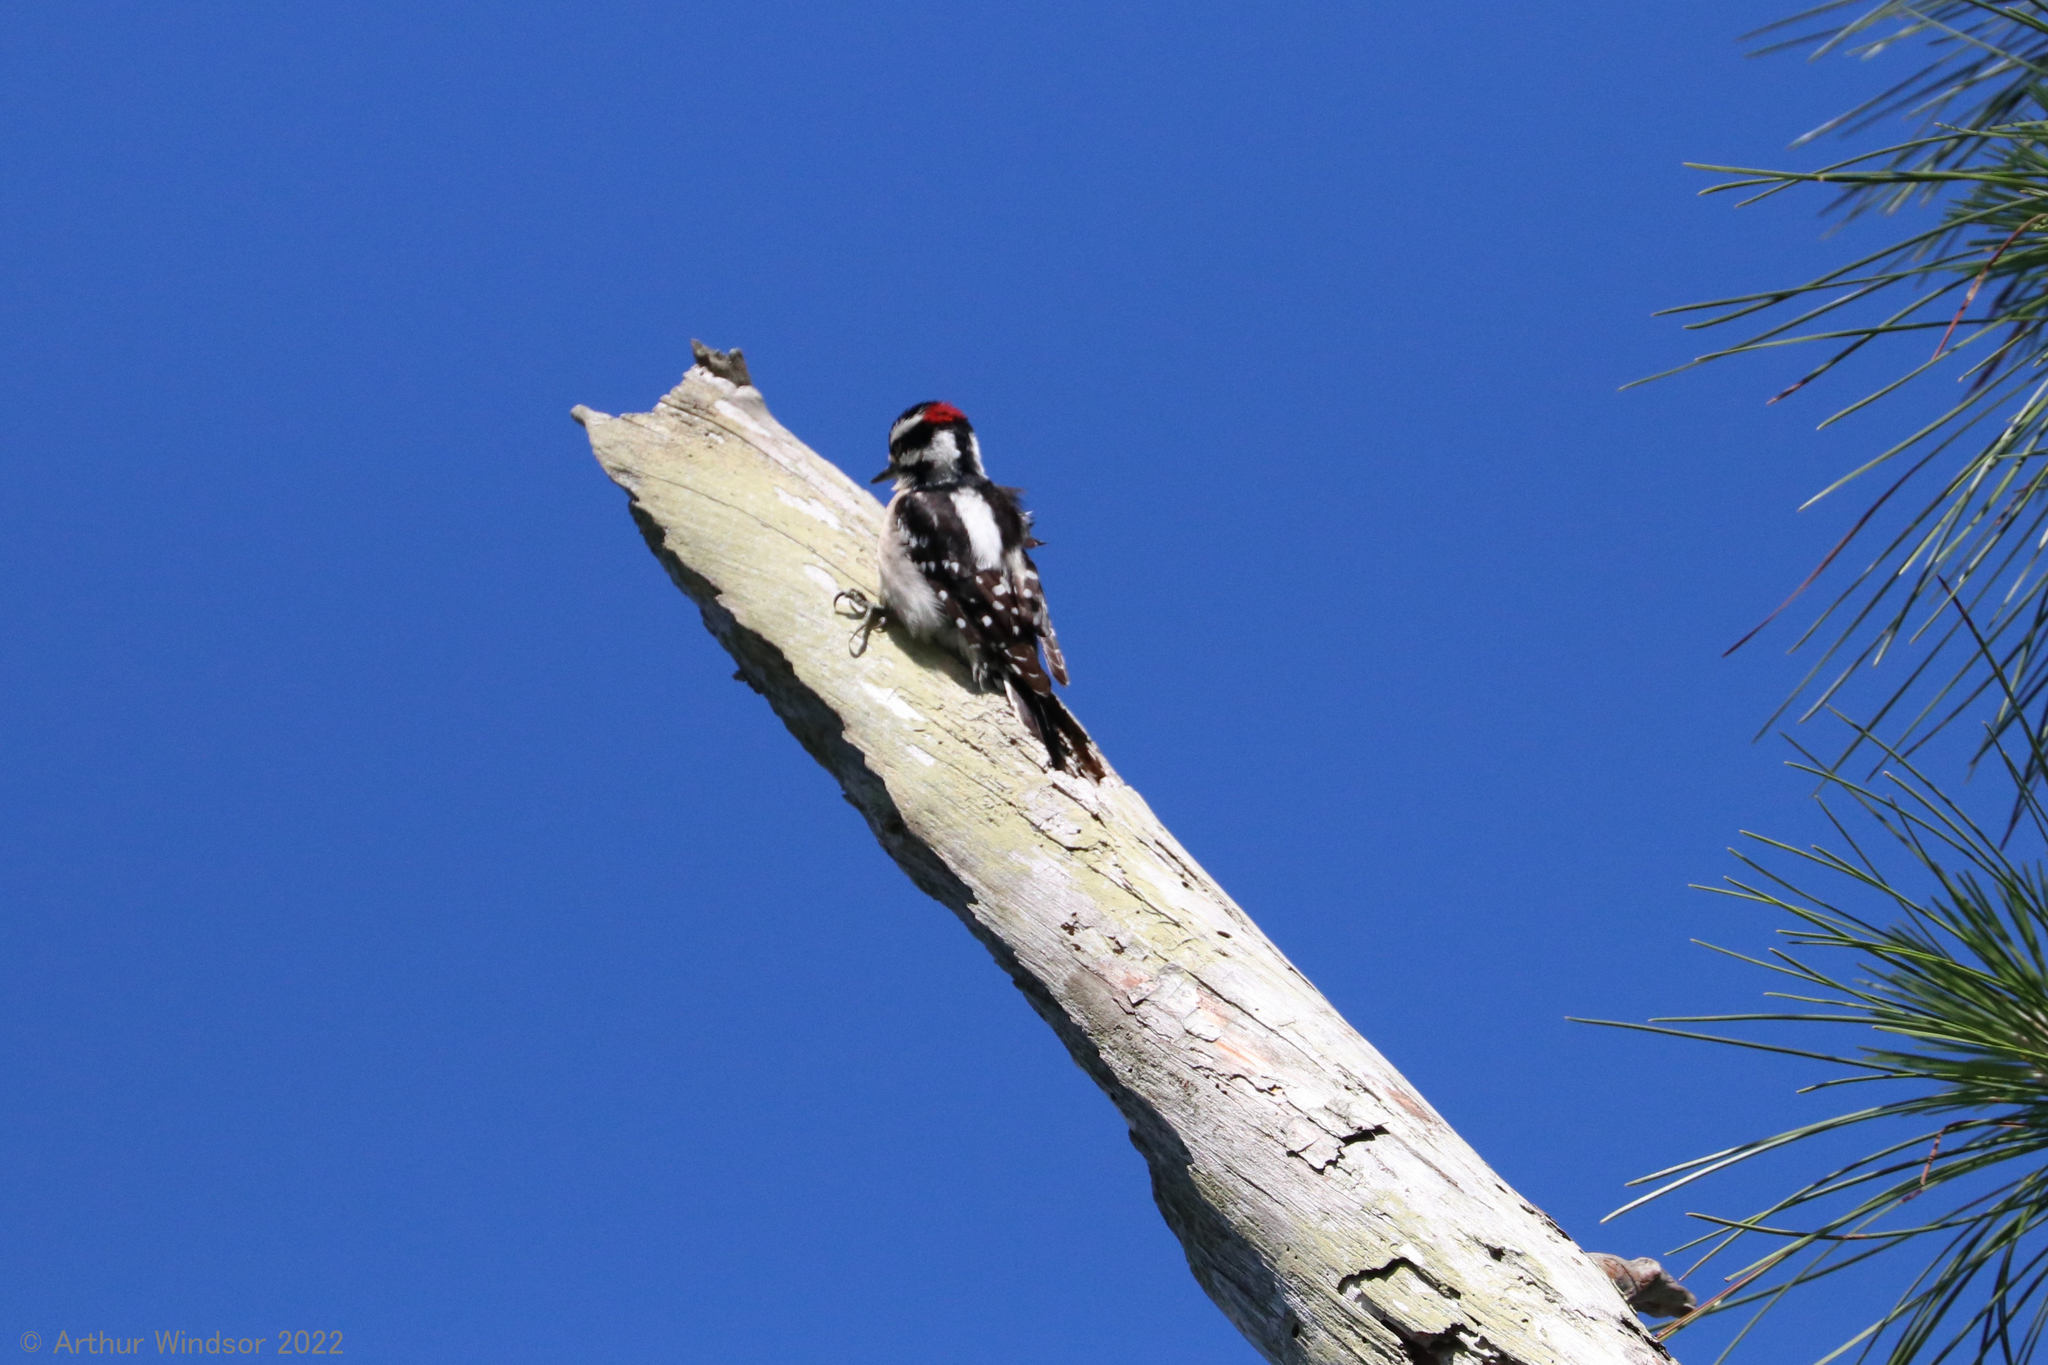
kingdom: Animalia
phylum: Chordata
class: Aves
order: Piciformes
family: Picidae
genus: Dryobates
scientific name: Dryobates pubescens
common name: Downy woodpecker
